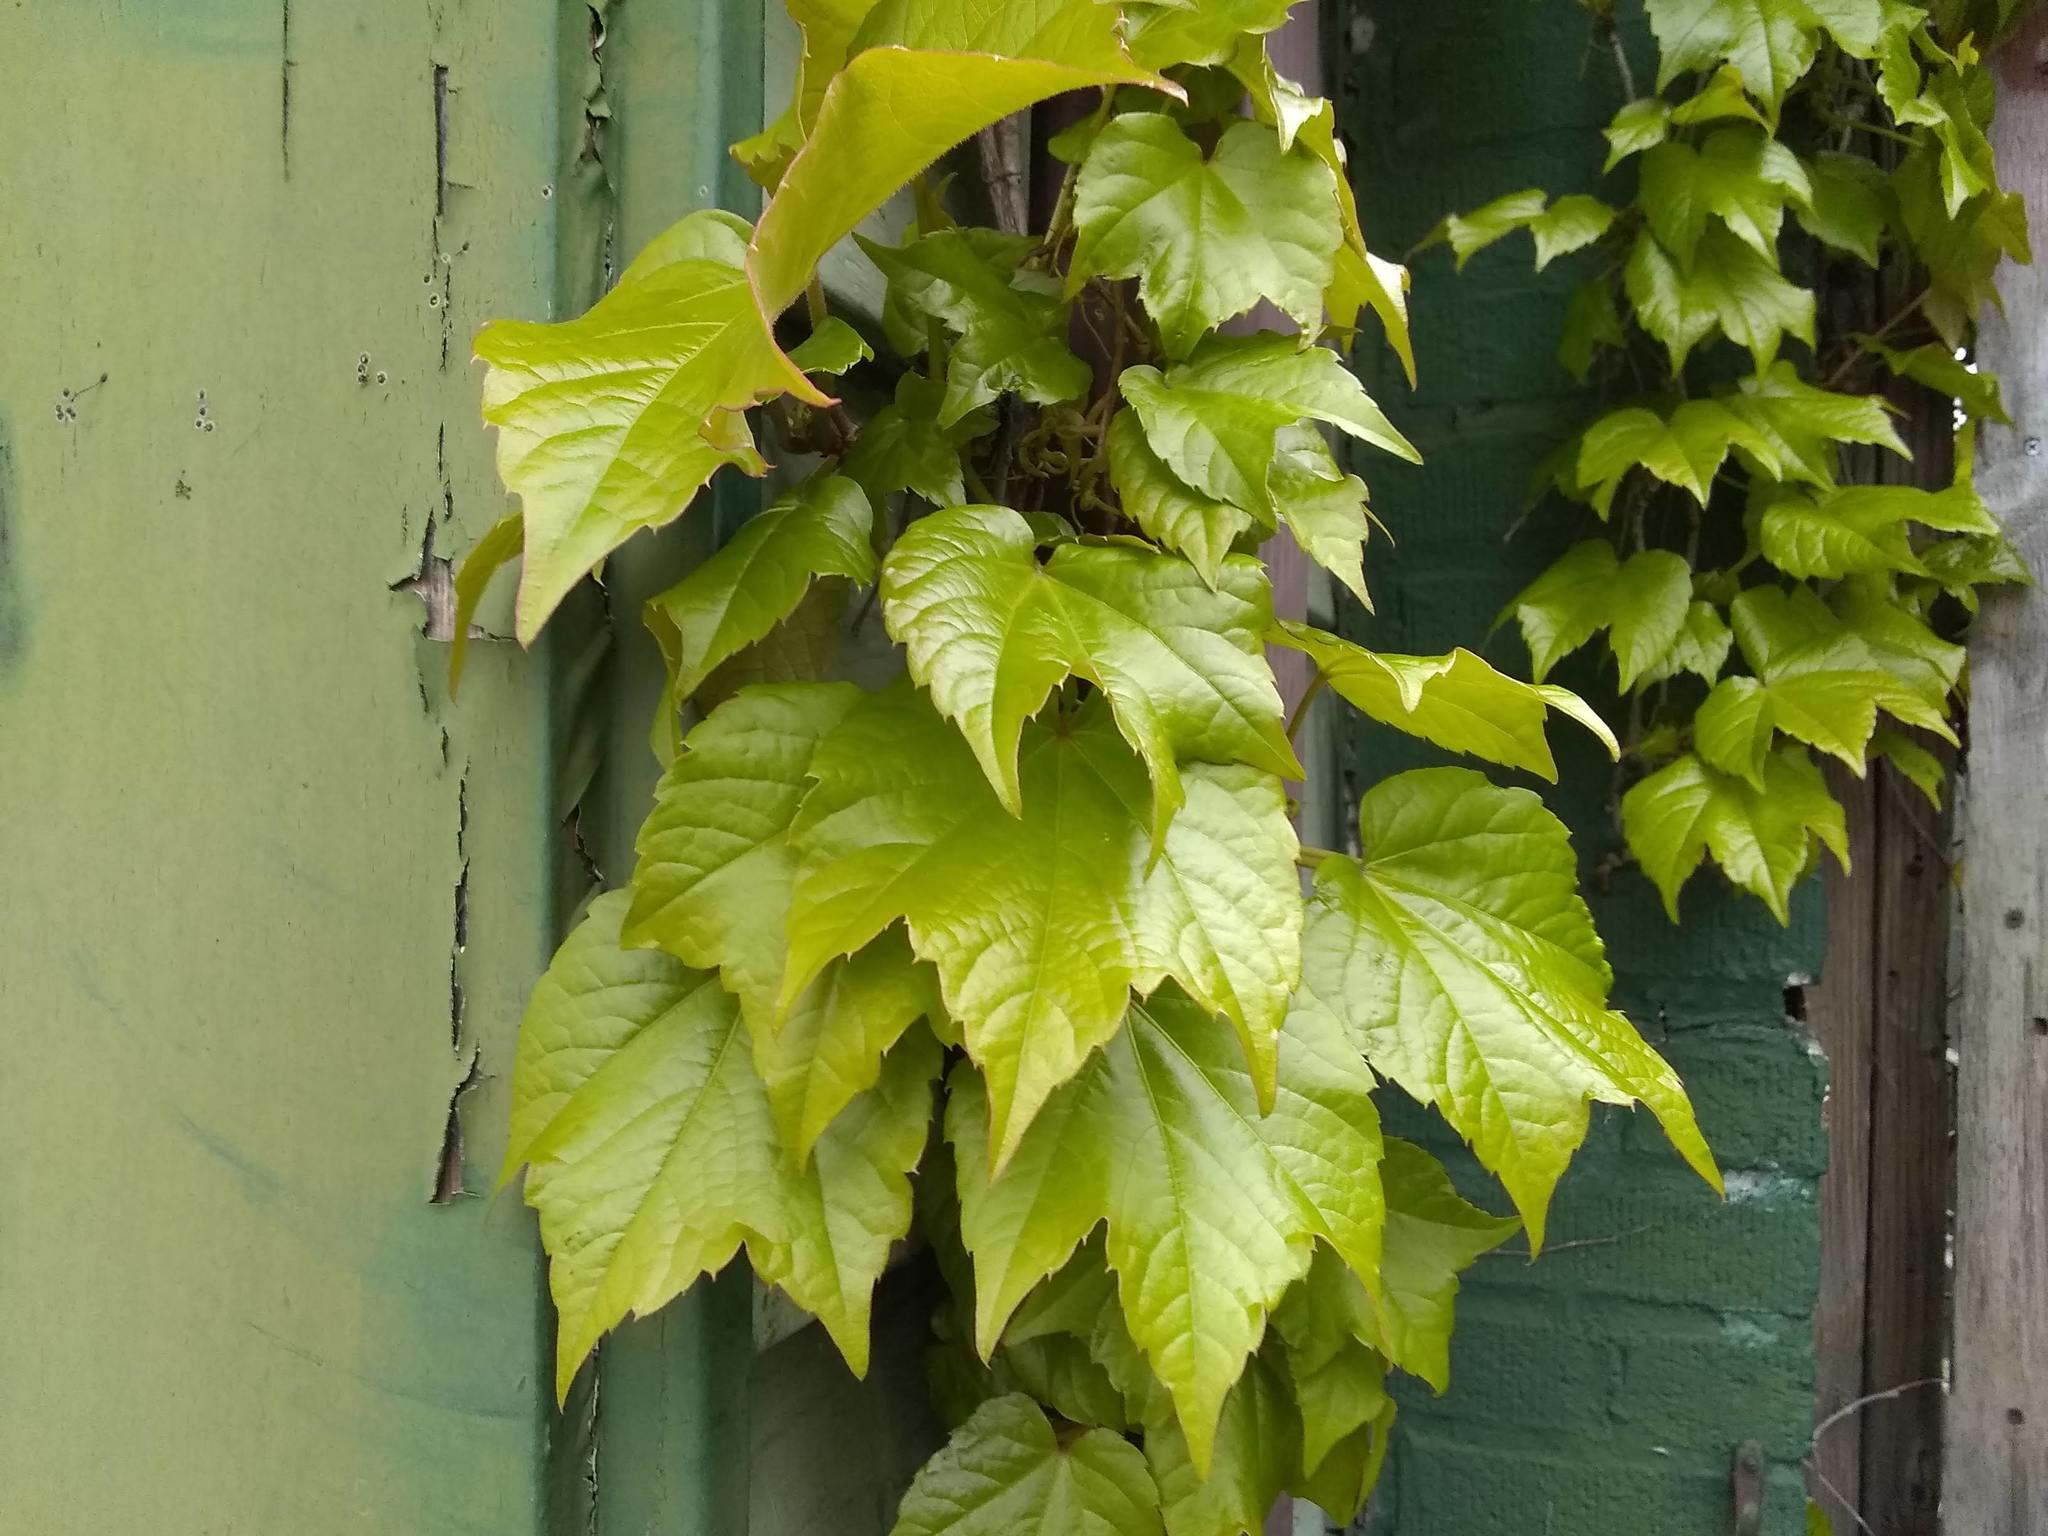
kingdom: Plantae
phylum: Tracheophyta
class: Magnoliopsida
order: Vitales
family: Vitaceae
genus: Parthenocissus
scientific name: Parthenocissus tricuspidata
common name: Boston ivy
